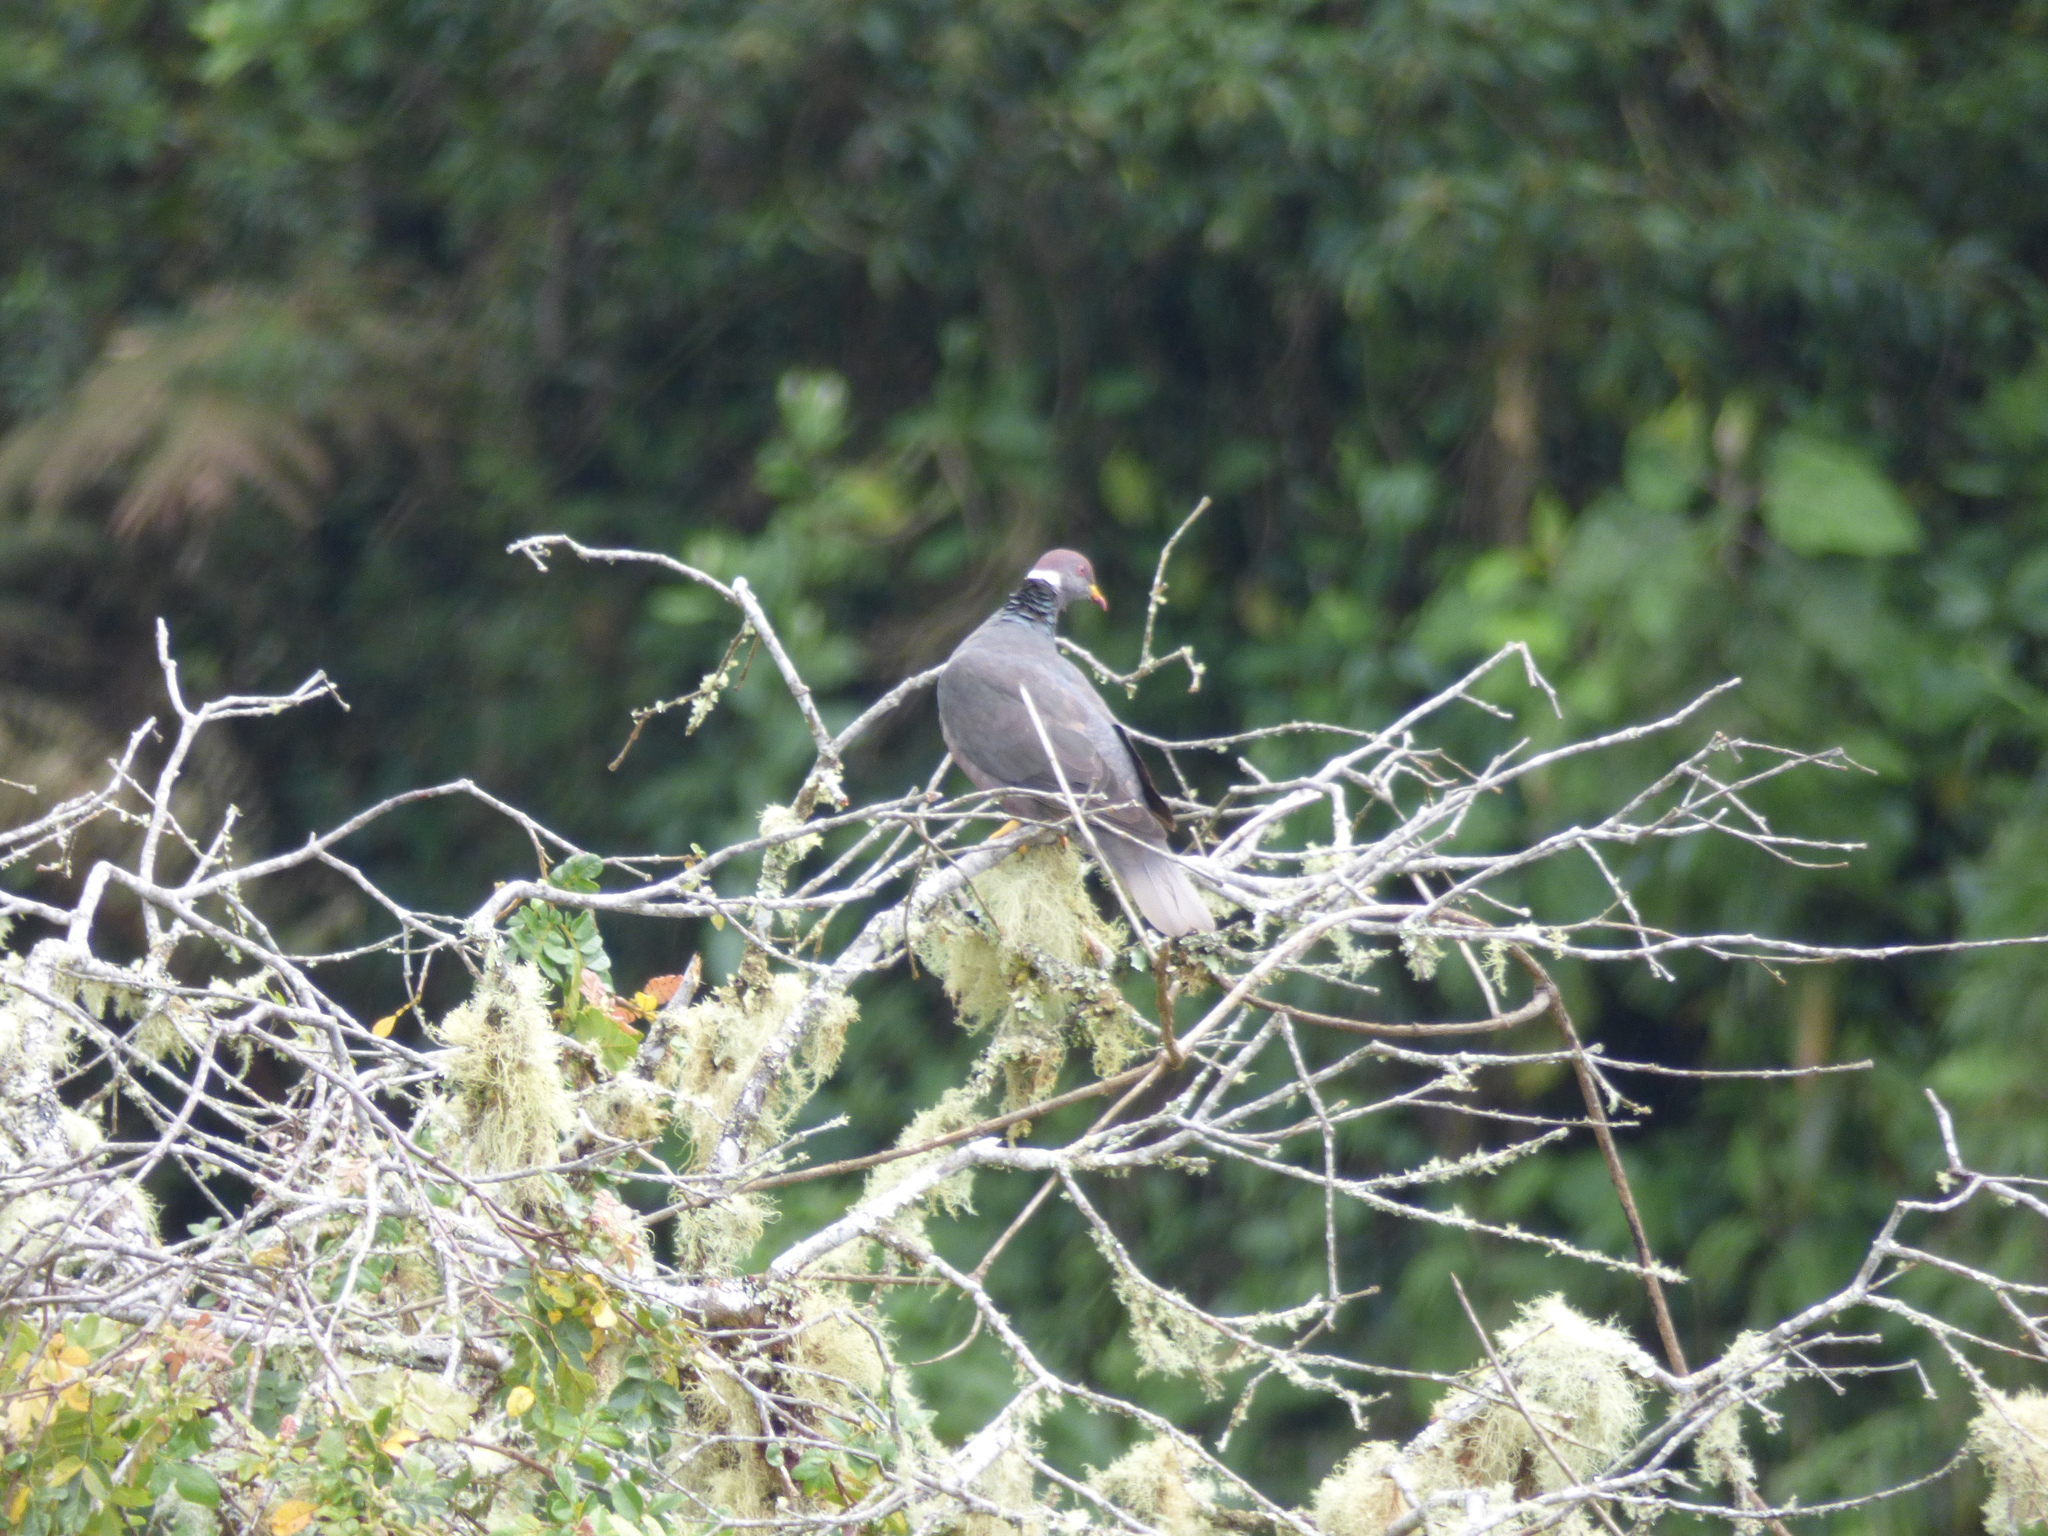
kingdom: Animalia
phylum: Chordata
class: Aves
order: Columbiformes
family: Columbidae
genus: Patagioenas
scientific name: Patagioenas fasciata
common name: Band-tailed pigeon
